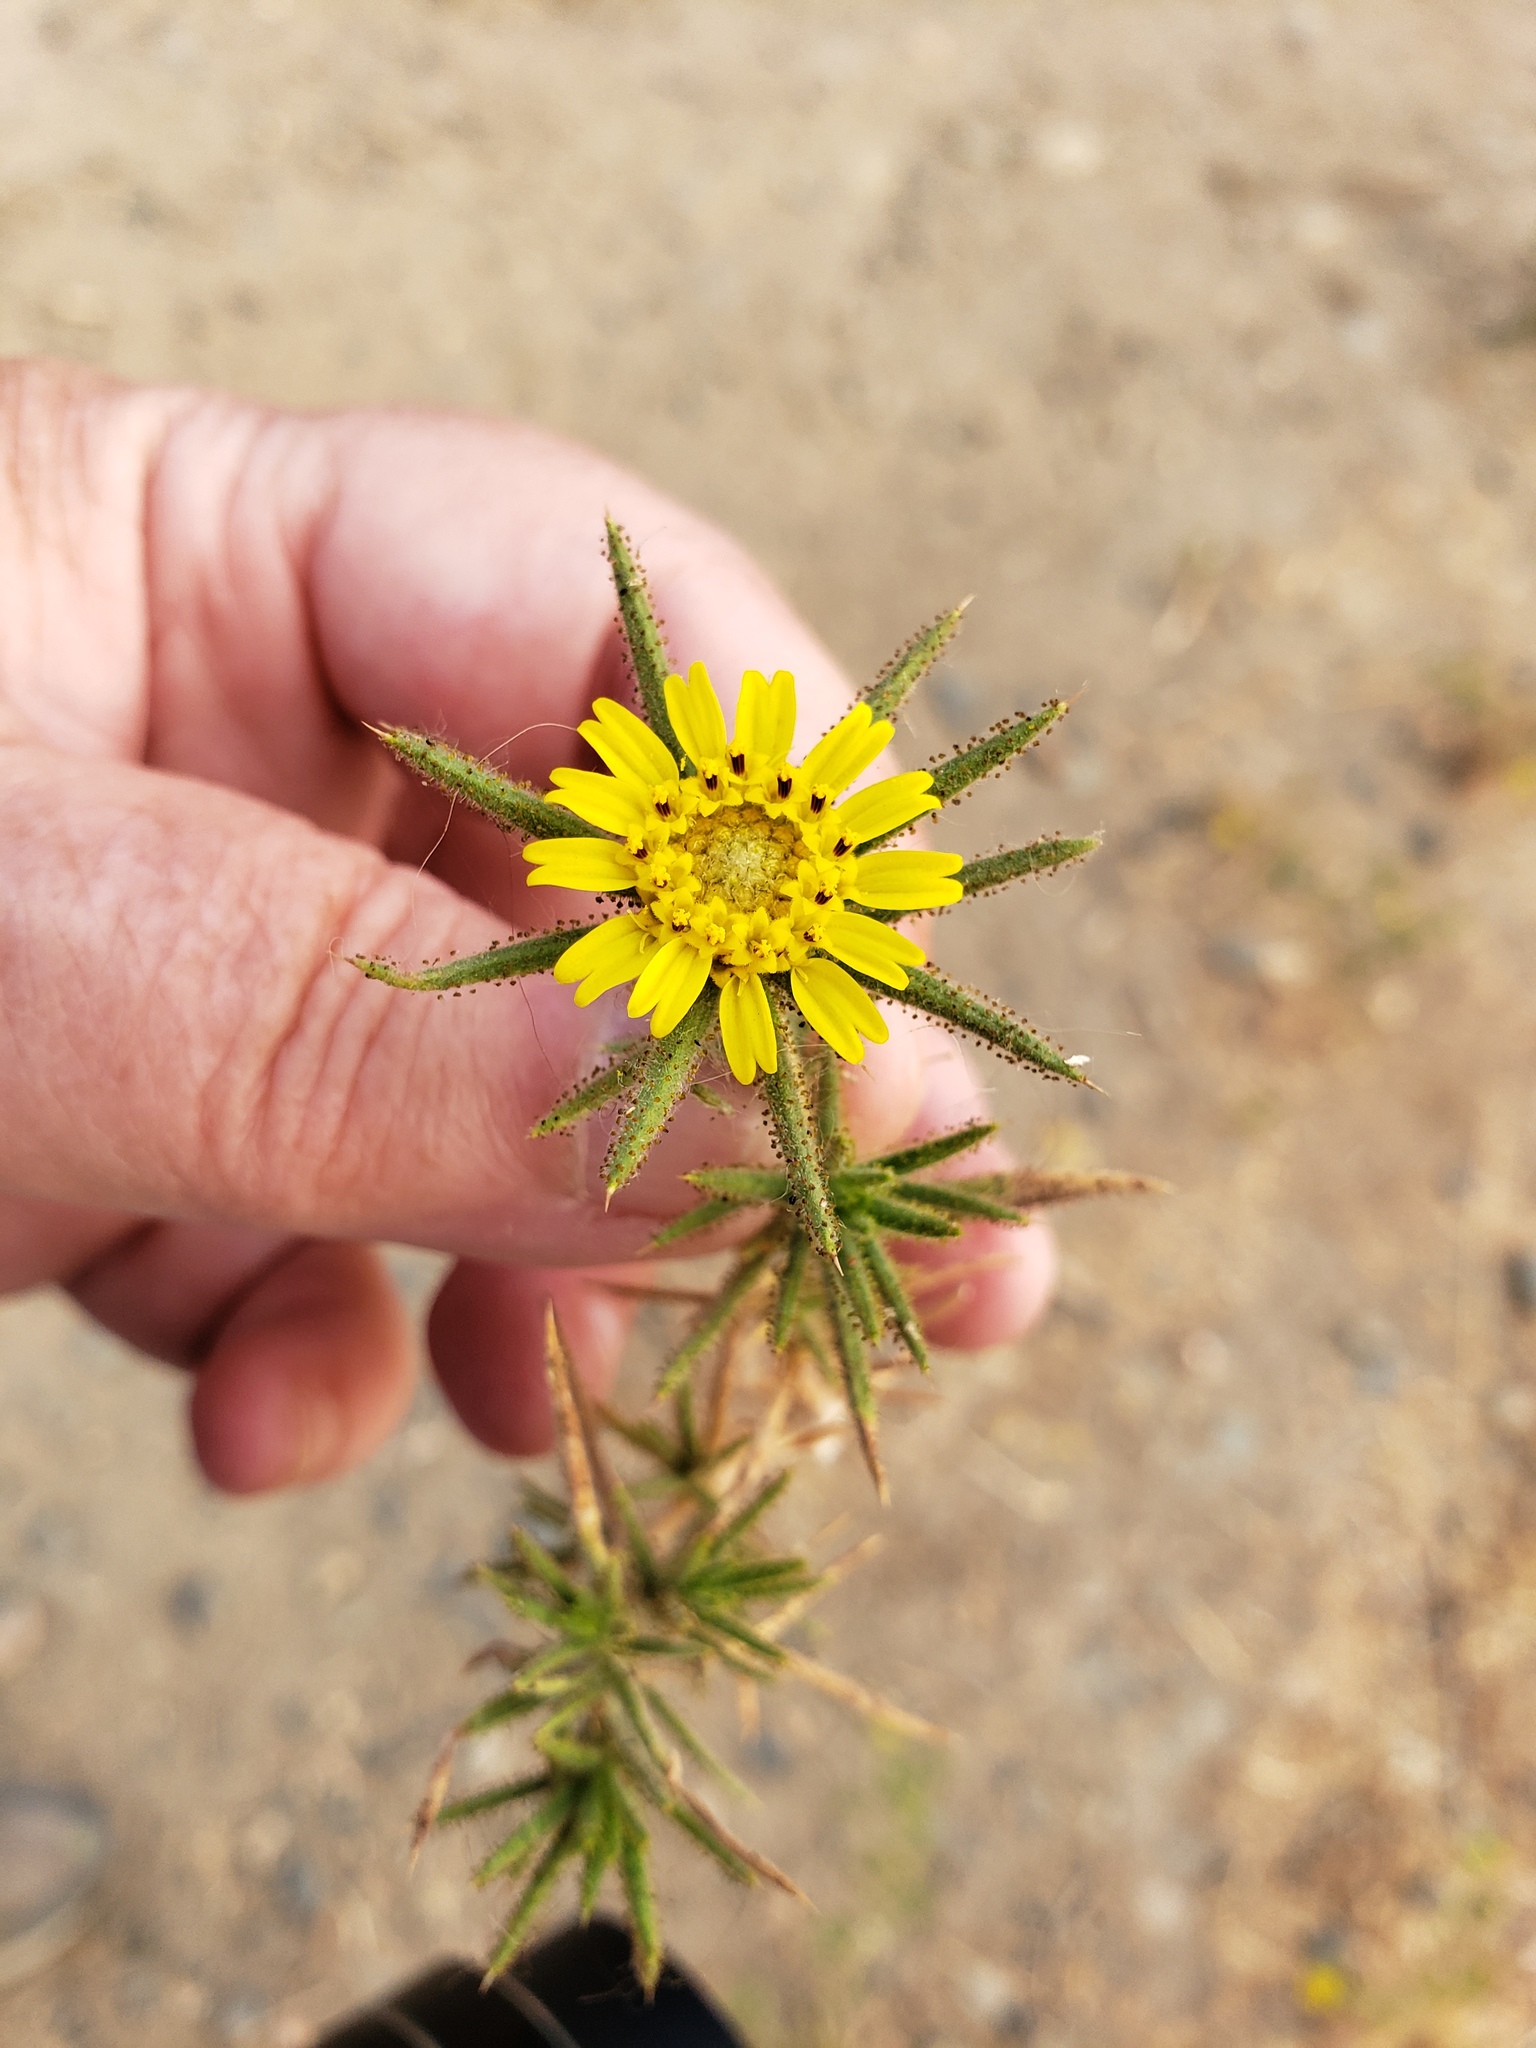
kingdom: Plantae
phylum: Tracheophyta
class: Magnoliopsida
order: Asterales
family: Asteraceae
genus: Centromadia
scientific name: Centromadia fitchii
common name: Fitch's spikeweed
